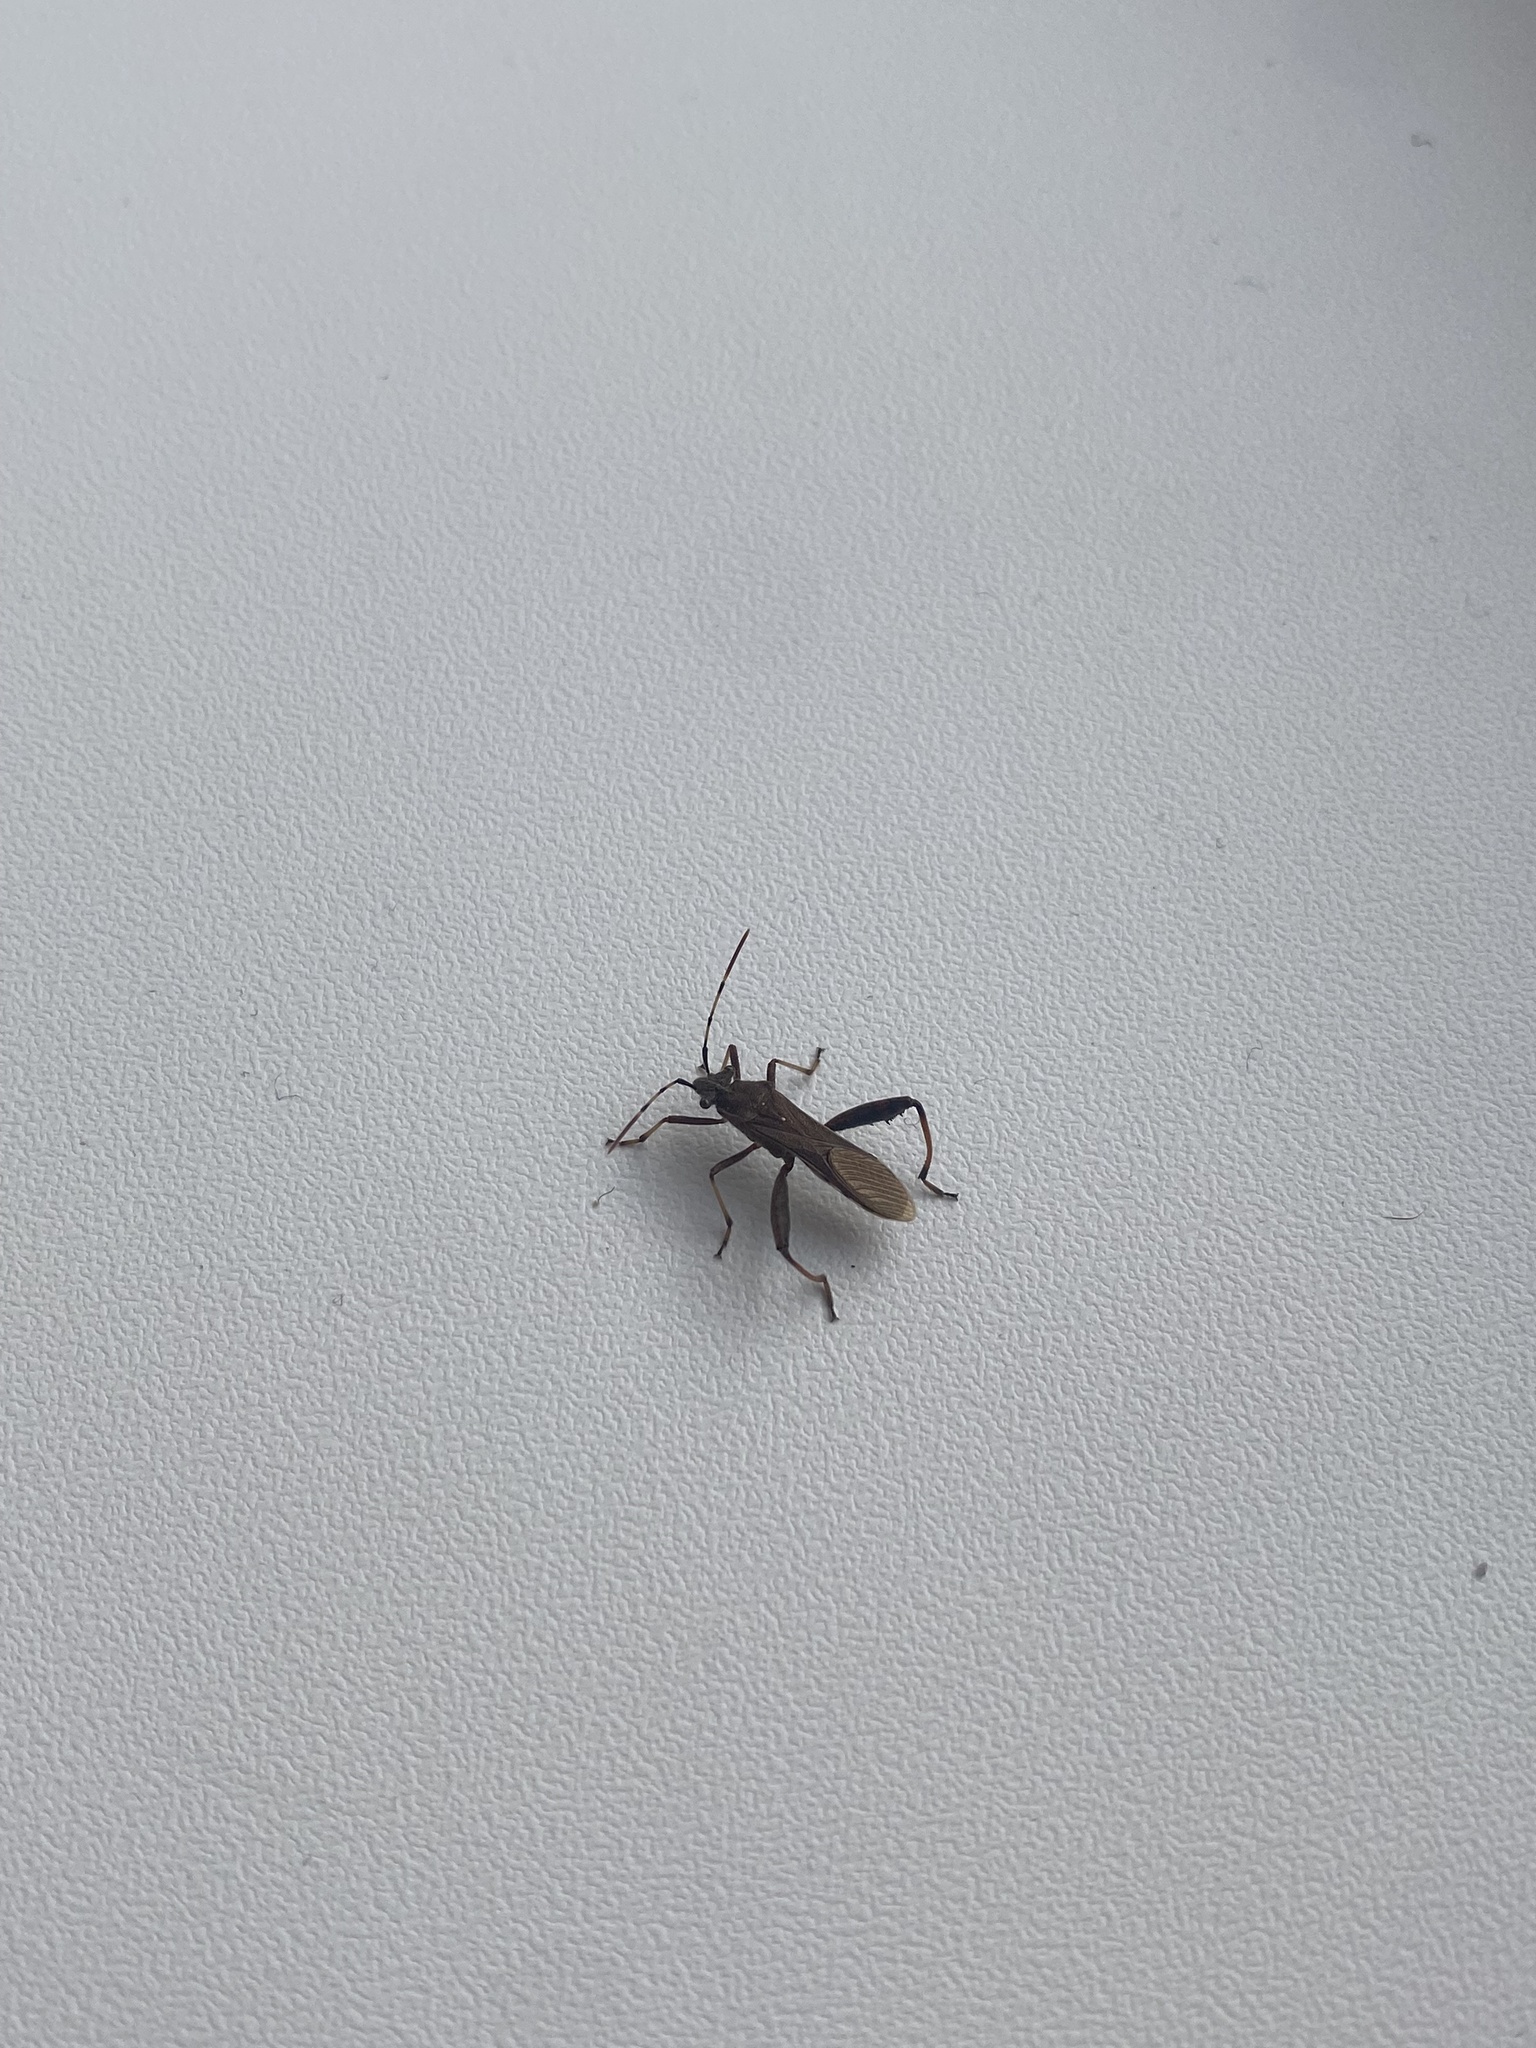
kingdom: Animalia
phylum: Arthropoda
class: Insecta
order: Hemiptera
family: Alydidae
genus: Camptopus
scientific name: Camptopus lateralis
